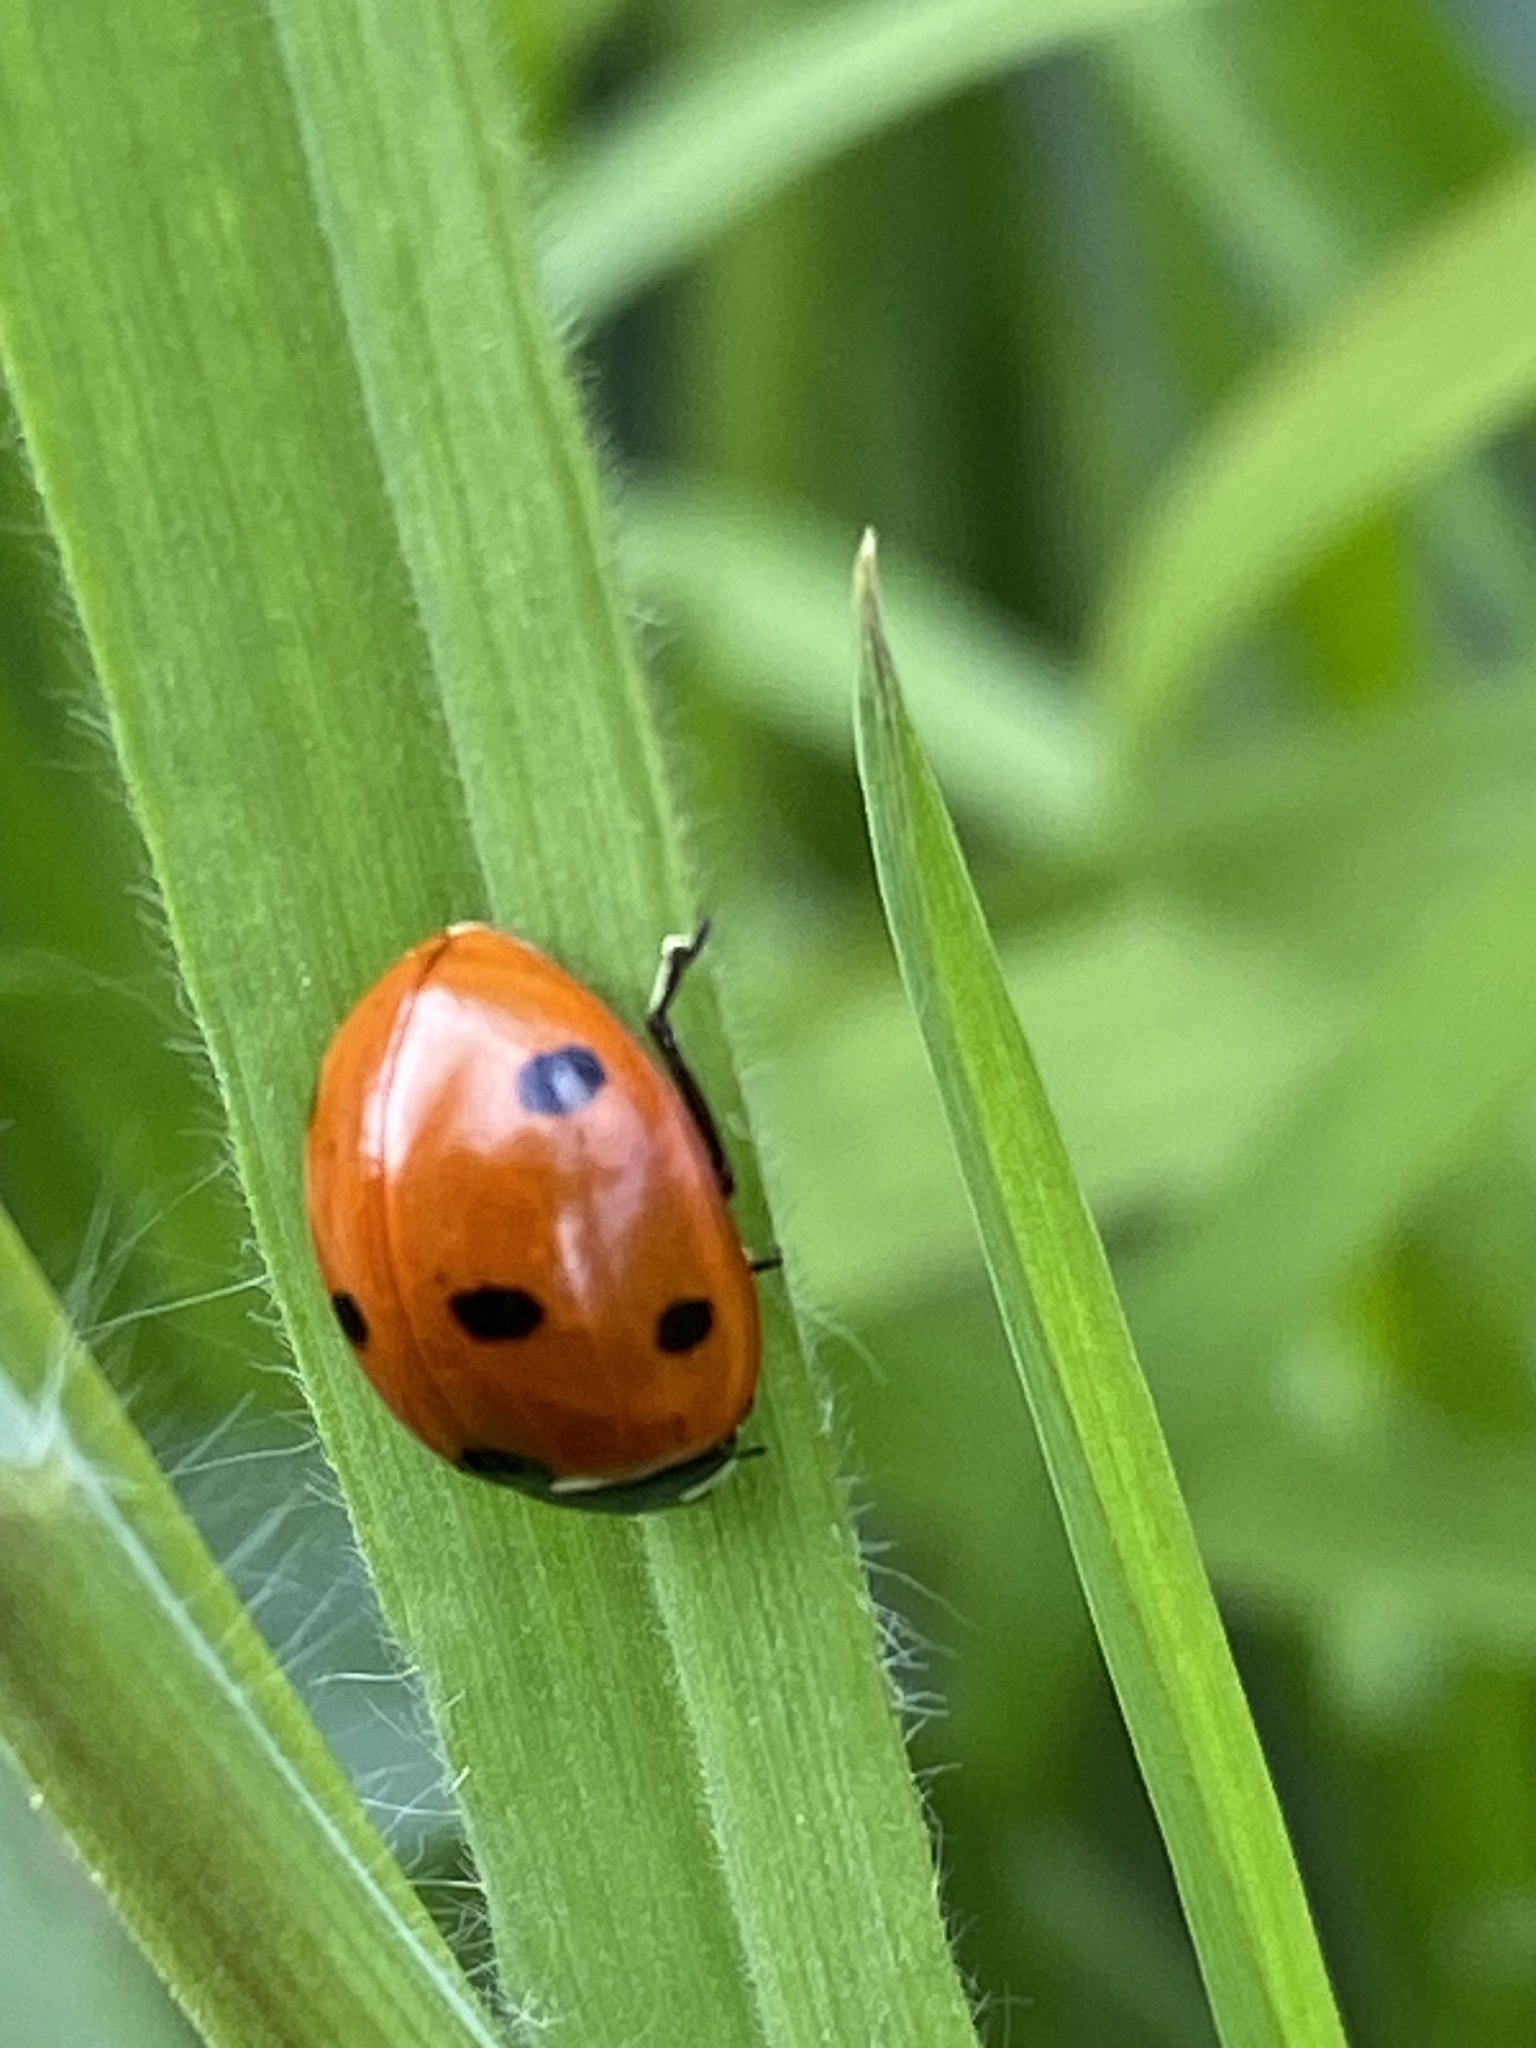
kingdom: Animalia
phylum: Arthropoda
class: Insecta
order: Coleoptera
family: Coccinellidae
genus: Coccinella
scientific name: Coccinella septempunctata
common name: Sevenspotted lady beetle
